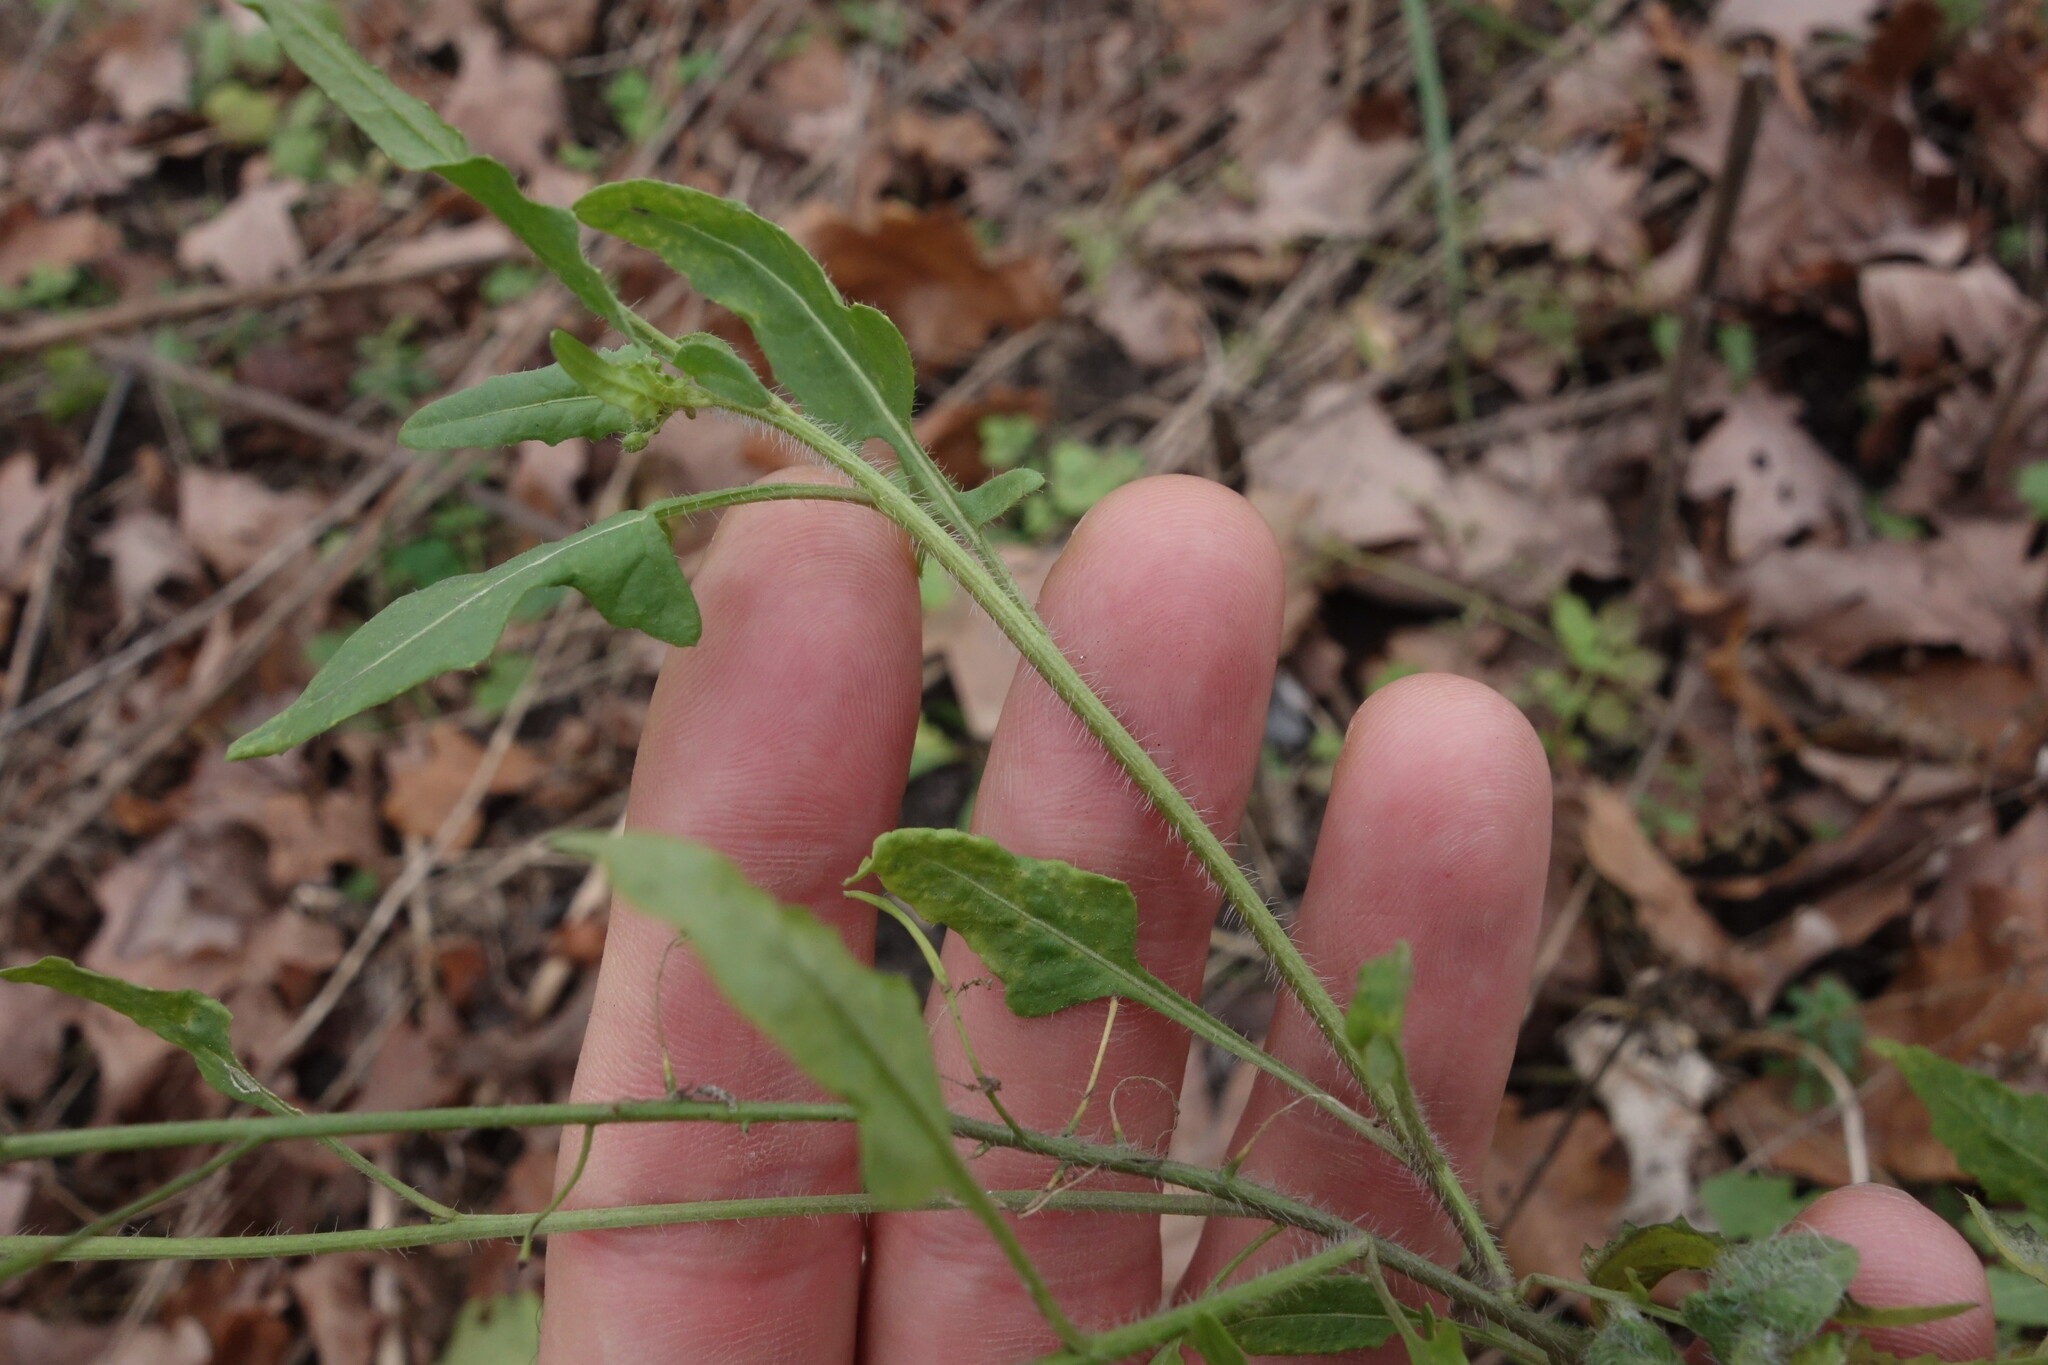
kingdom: Plantae
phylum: Tracheophyta
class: Magnoliopsida
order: Brassicales
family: Brassicaceae
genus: Sisymbrium
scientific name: Sisymbrium loeselii
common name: False london-rocket
